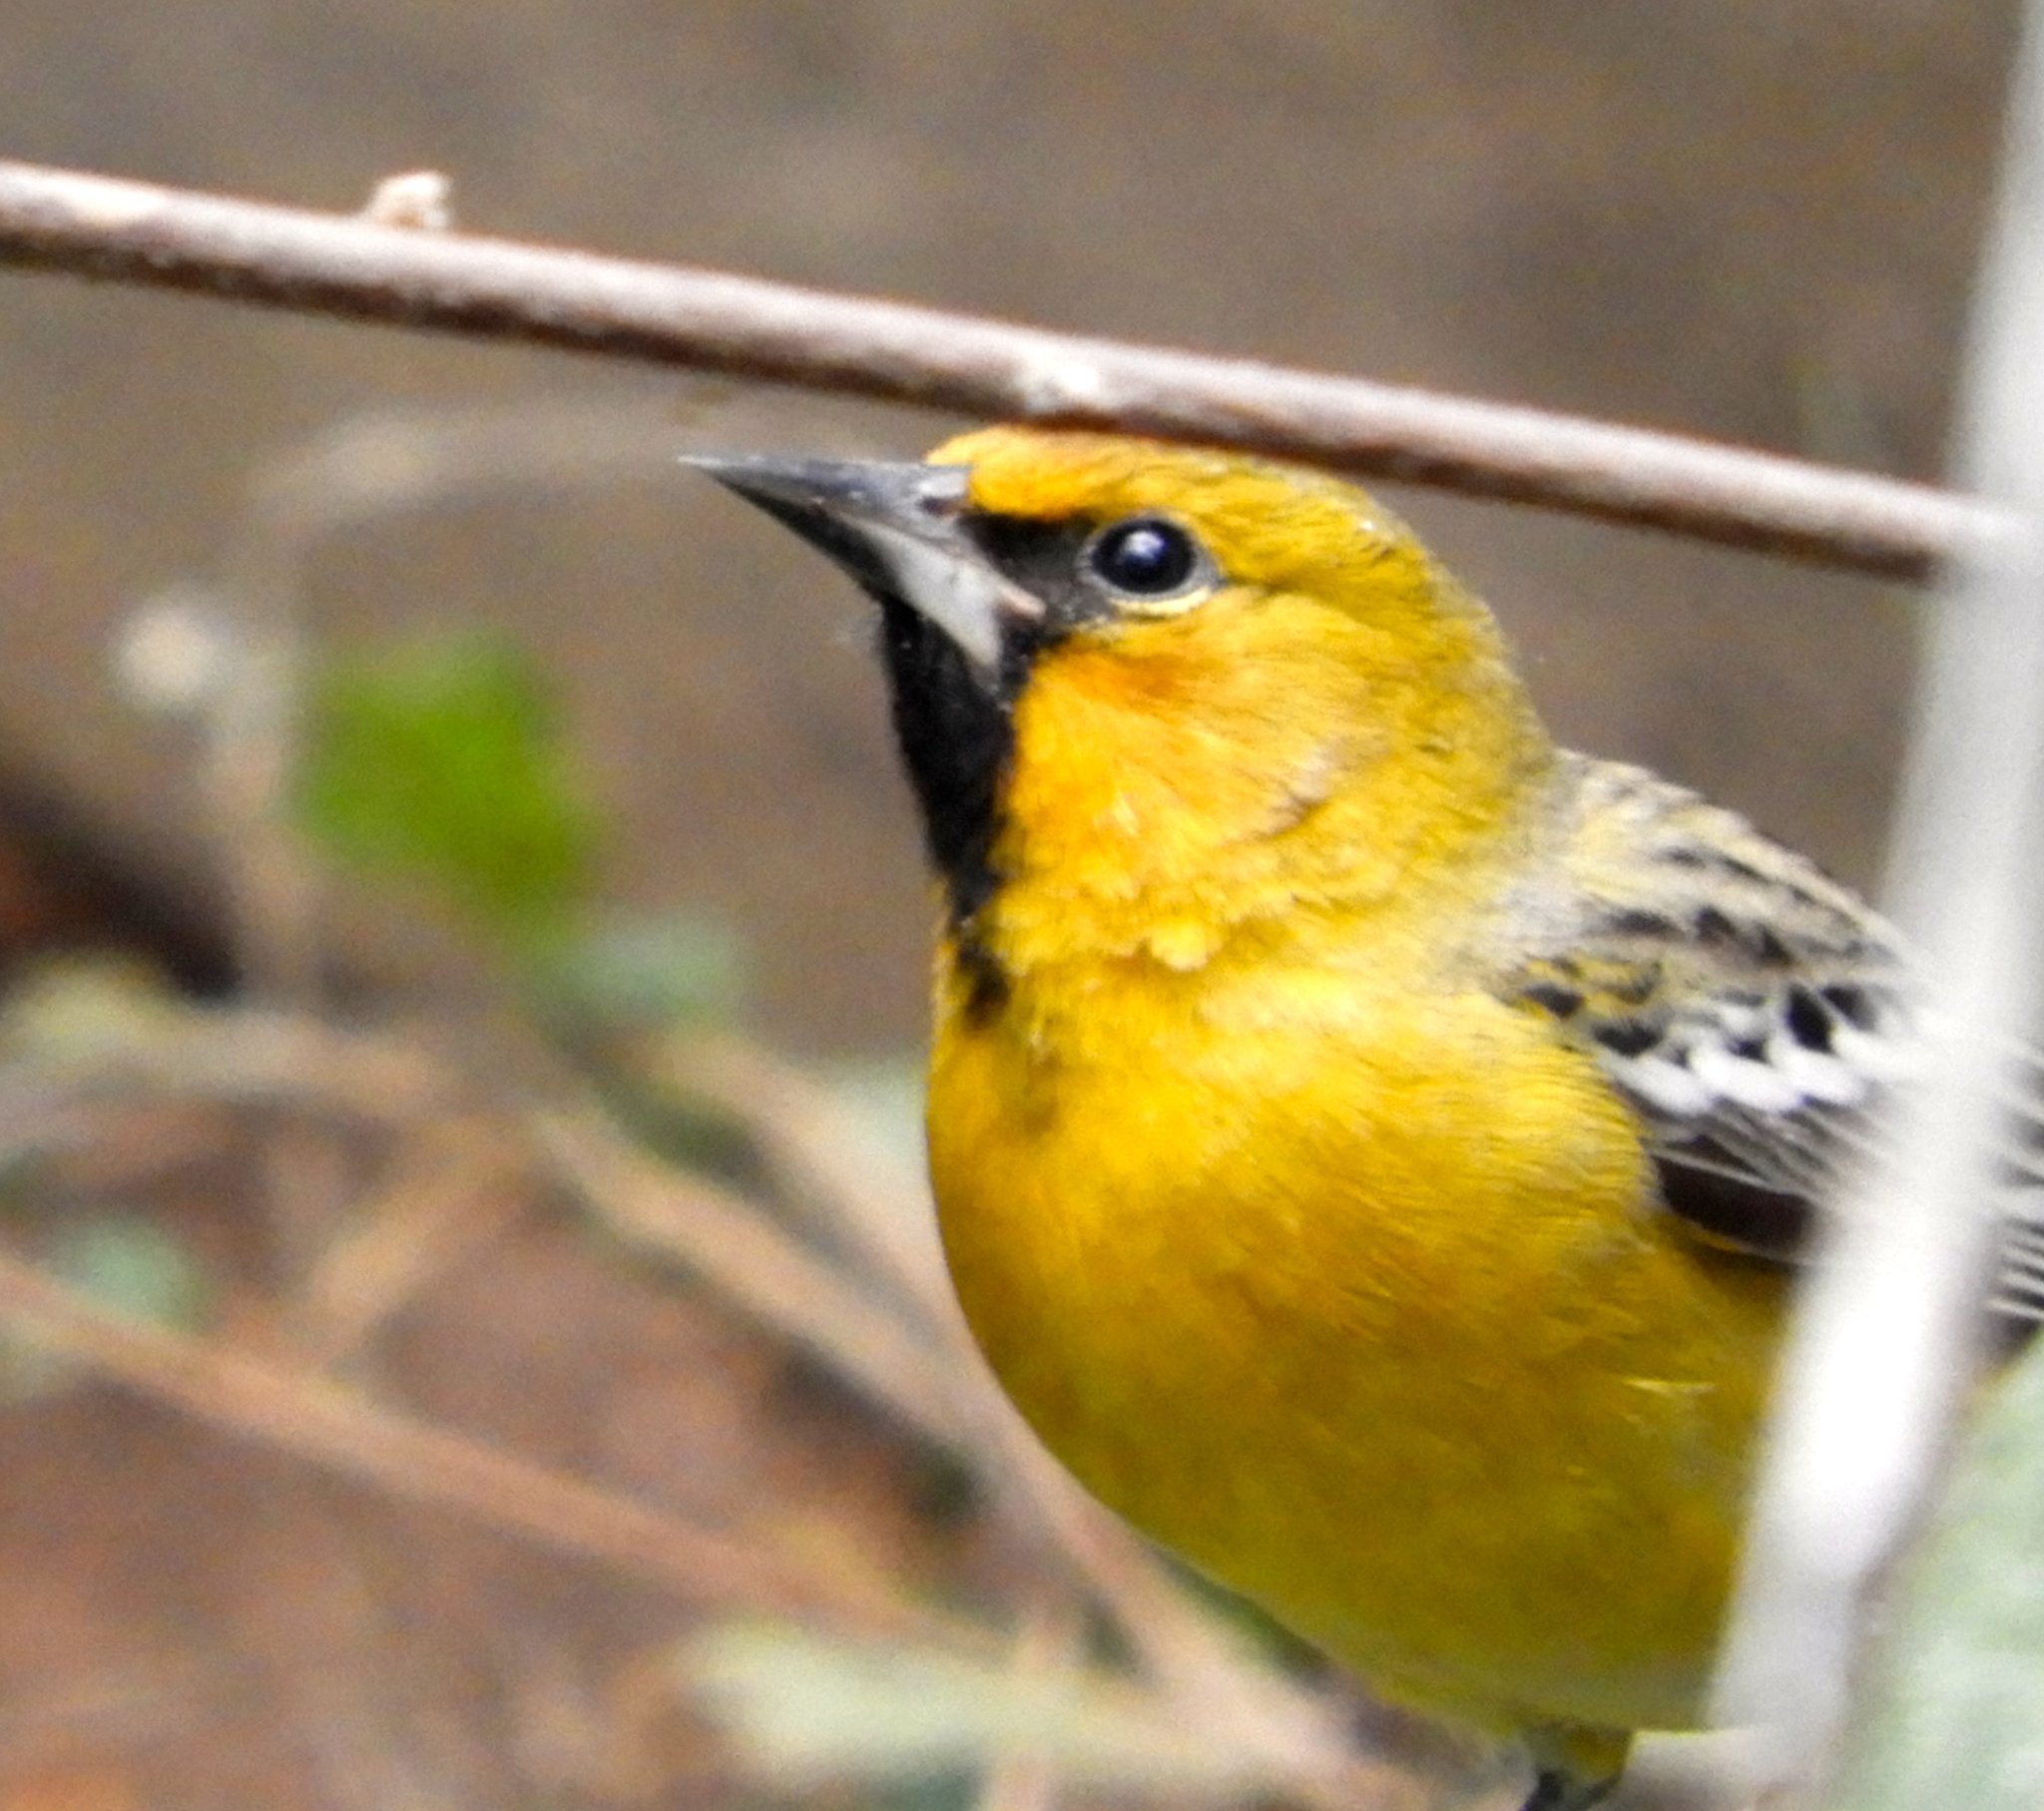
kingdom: Animalia
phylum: Chordata
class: Aves
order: Passeriformes
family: Icteridae
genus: Icterus
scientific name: Icterus pustulatus
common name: Streak-backed oriole
